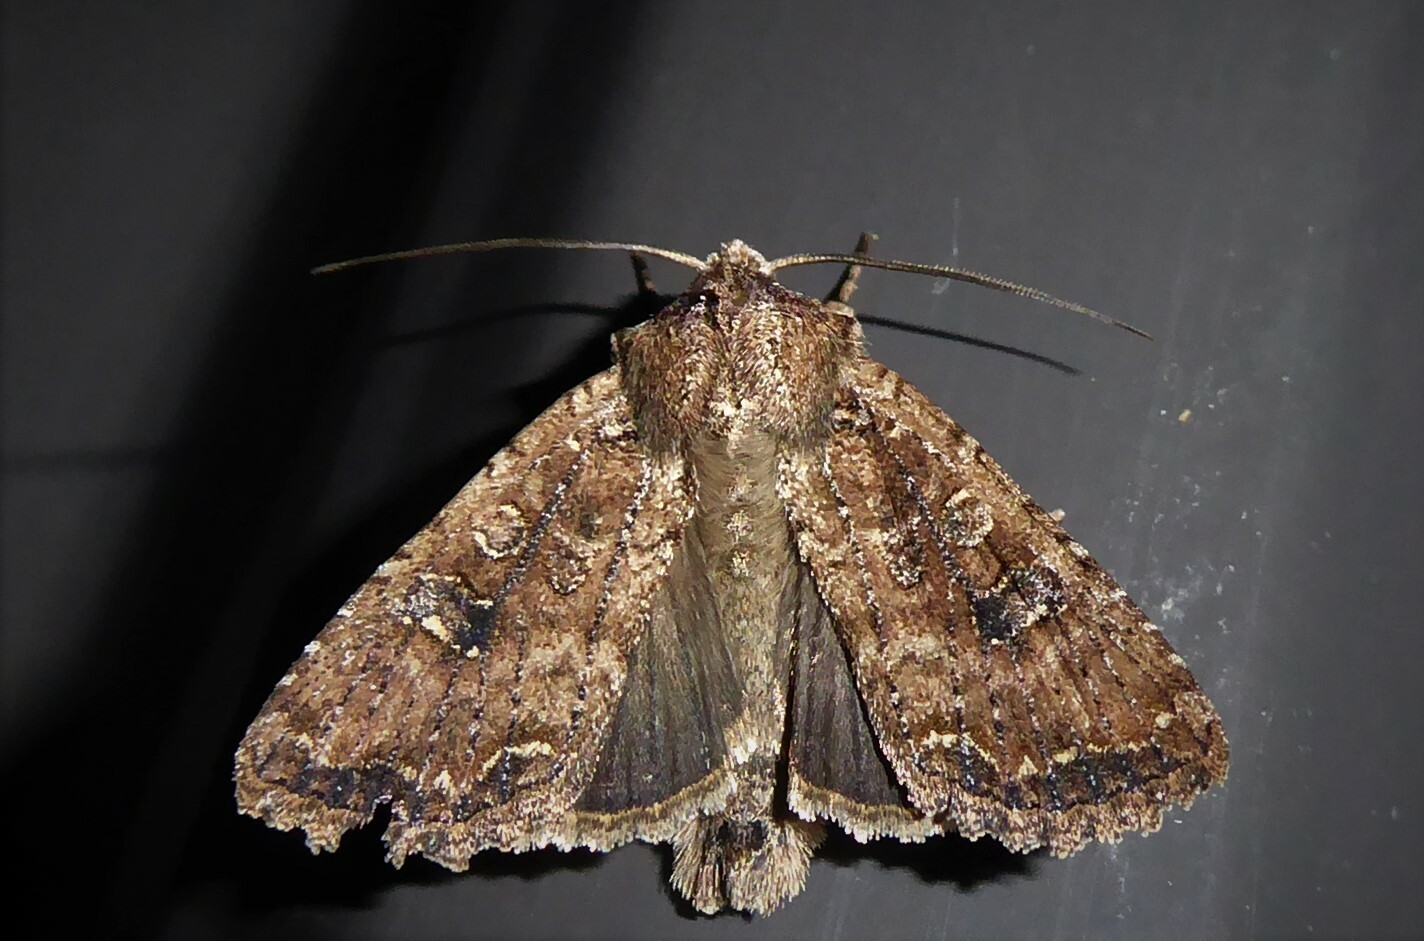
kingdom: Animalia
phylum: Arthropoda
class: Insecta
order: Lepidoptera
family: Noctuidae
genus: Ichneutica
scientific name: Ichneutica morosa
